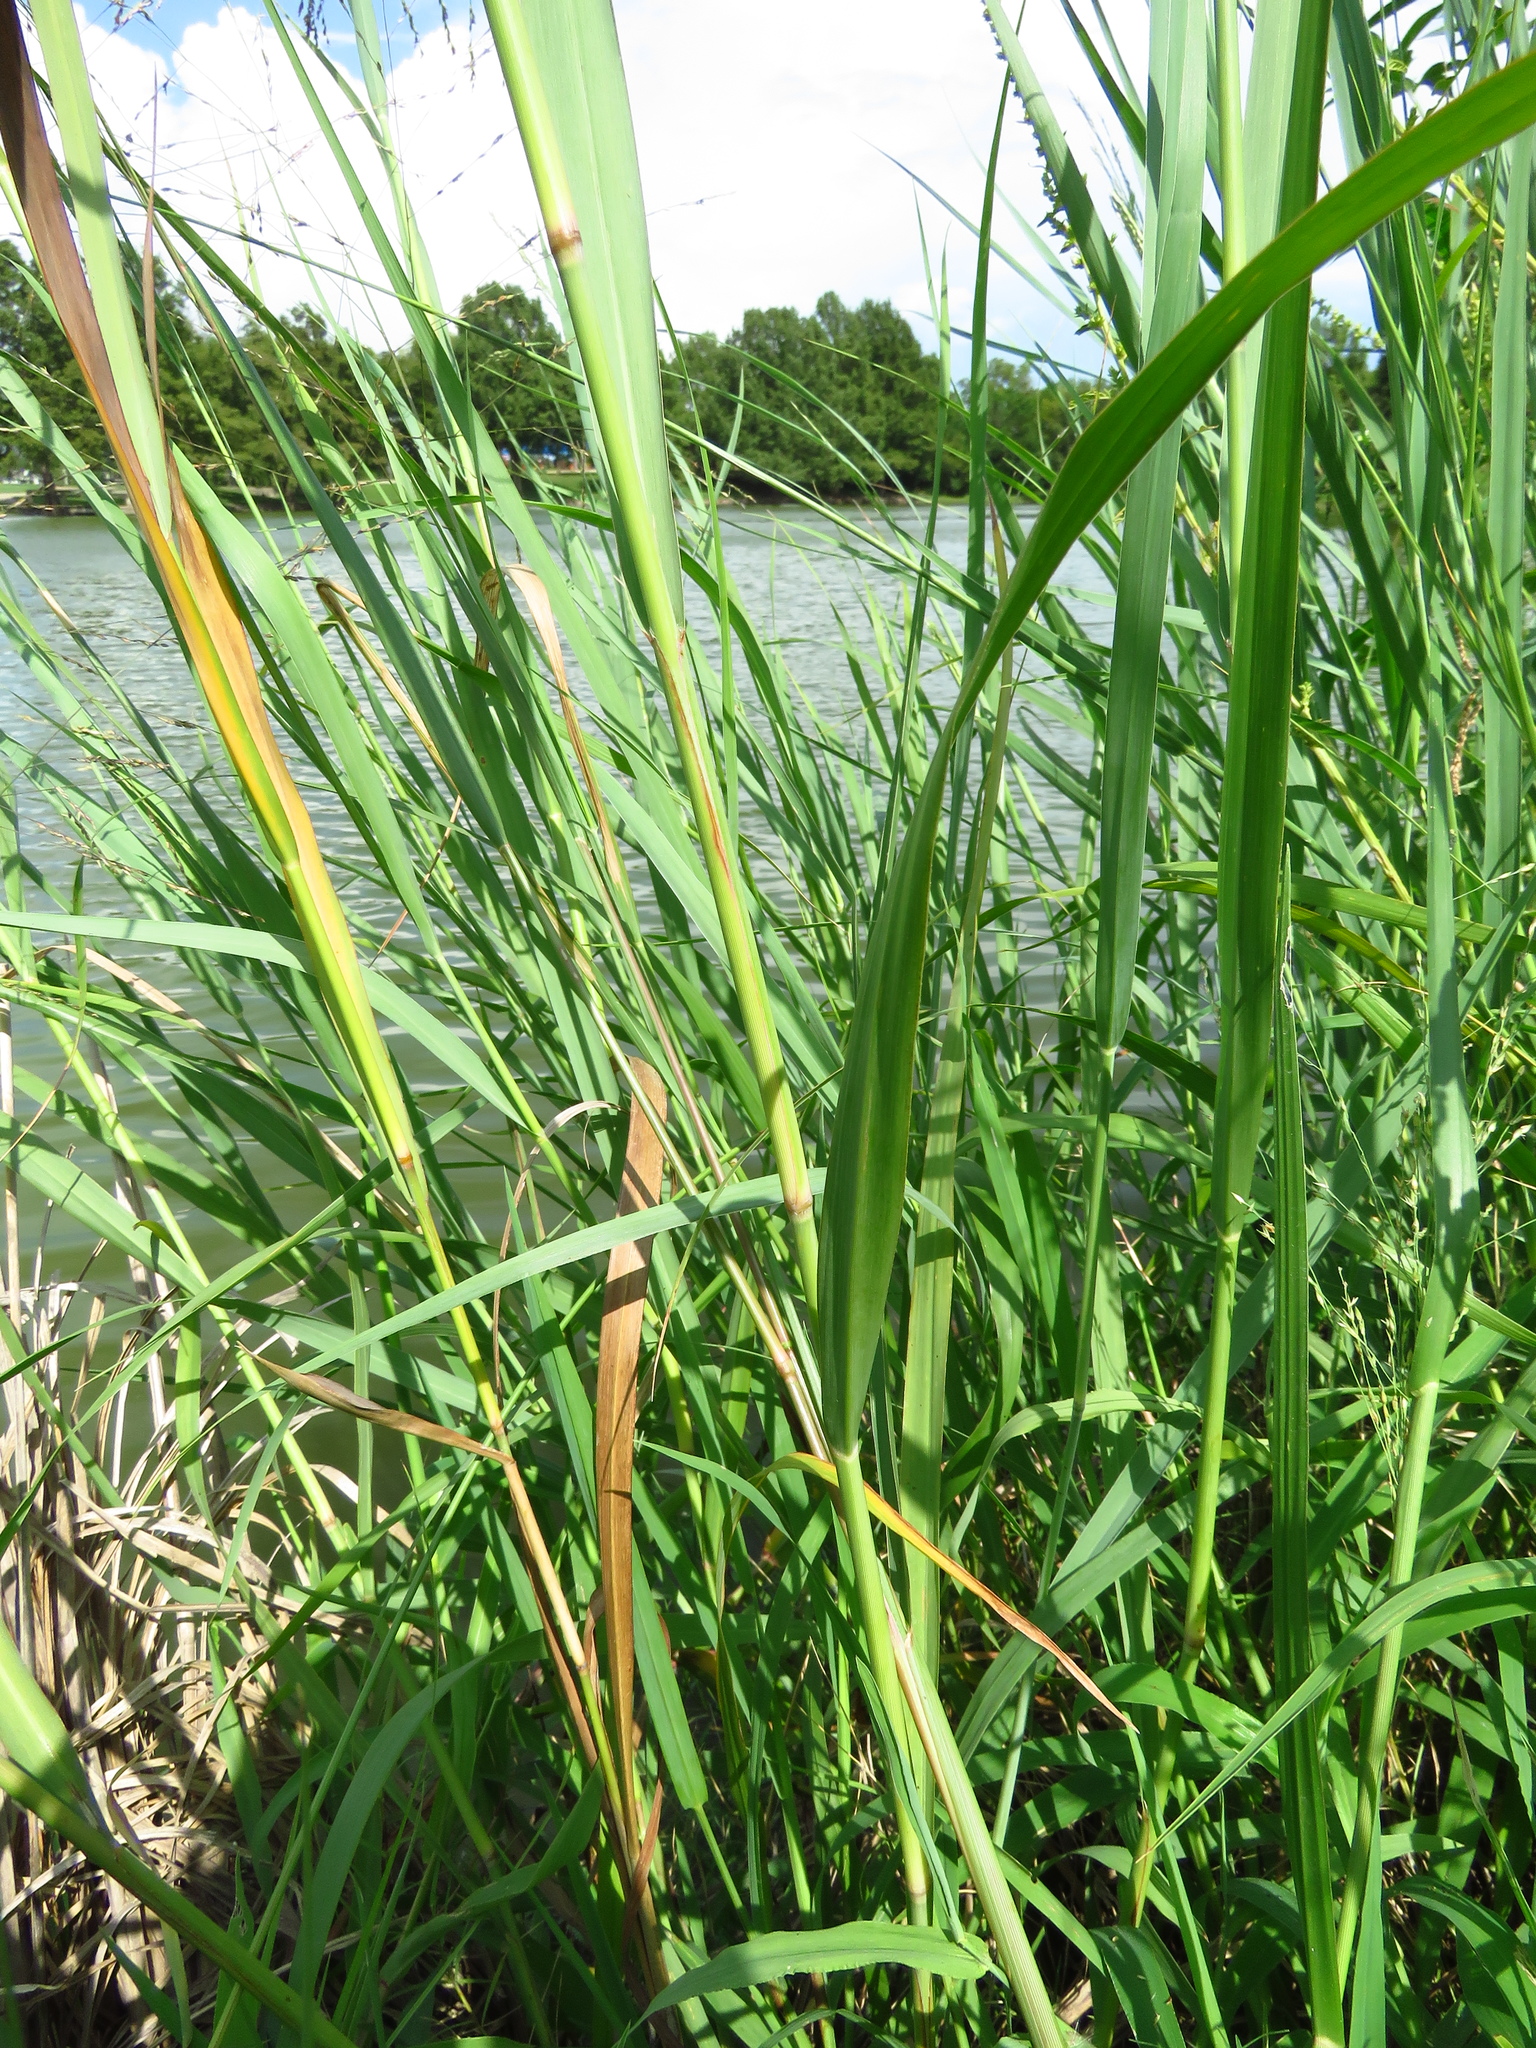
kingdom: Plantae
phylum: Tracheophyta
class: Liliopsida
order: Poales
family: Poaceae
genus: Panicum
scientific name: Panicum virgatum
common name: Switchgrass
